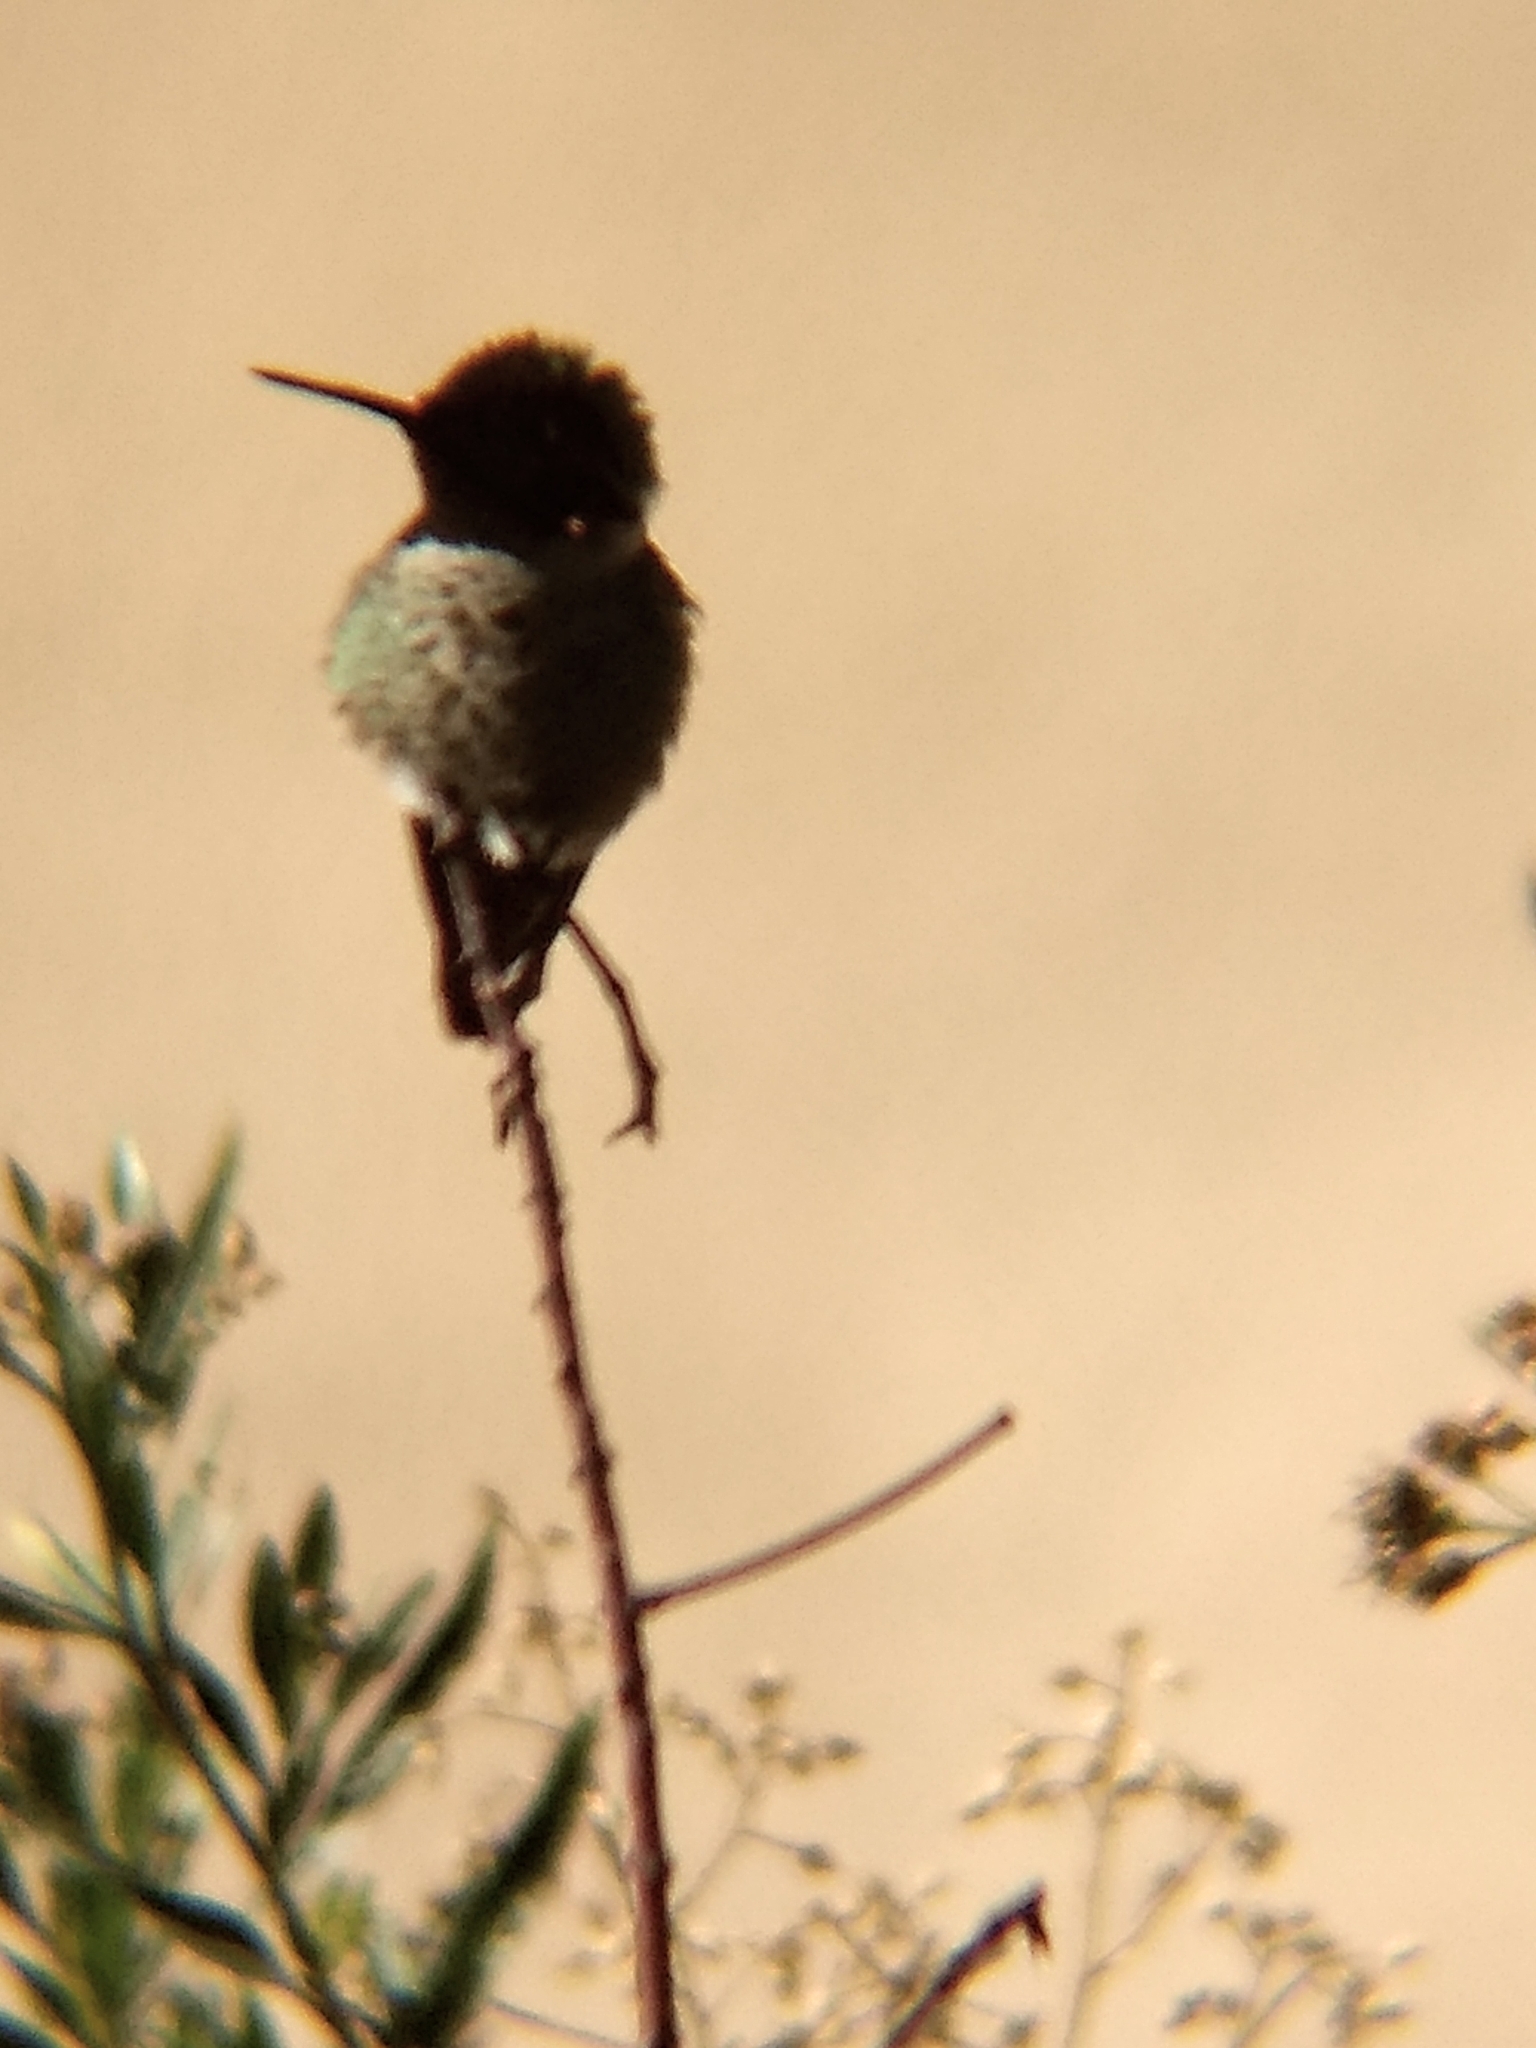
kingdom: Animalia
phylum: Chordata
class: Aves
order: Apodiformes
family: Trochilidae
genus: Calypte
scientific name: Calypte anna
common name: Anna's hummingbird
